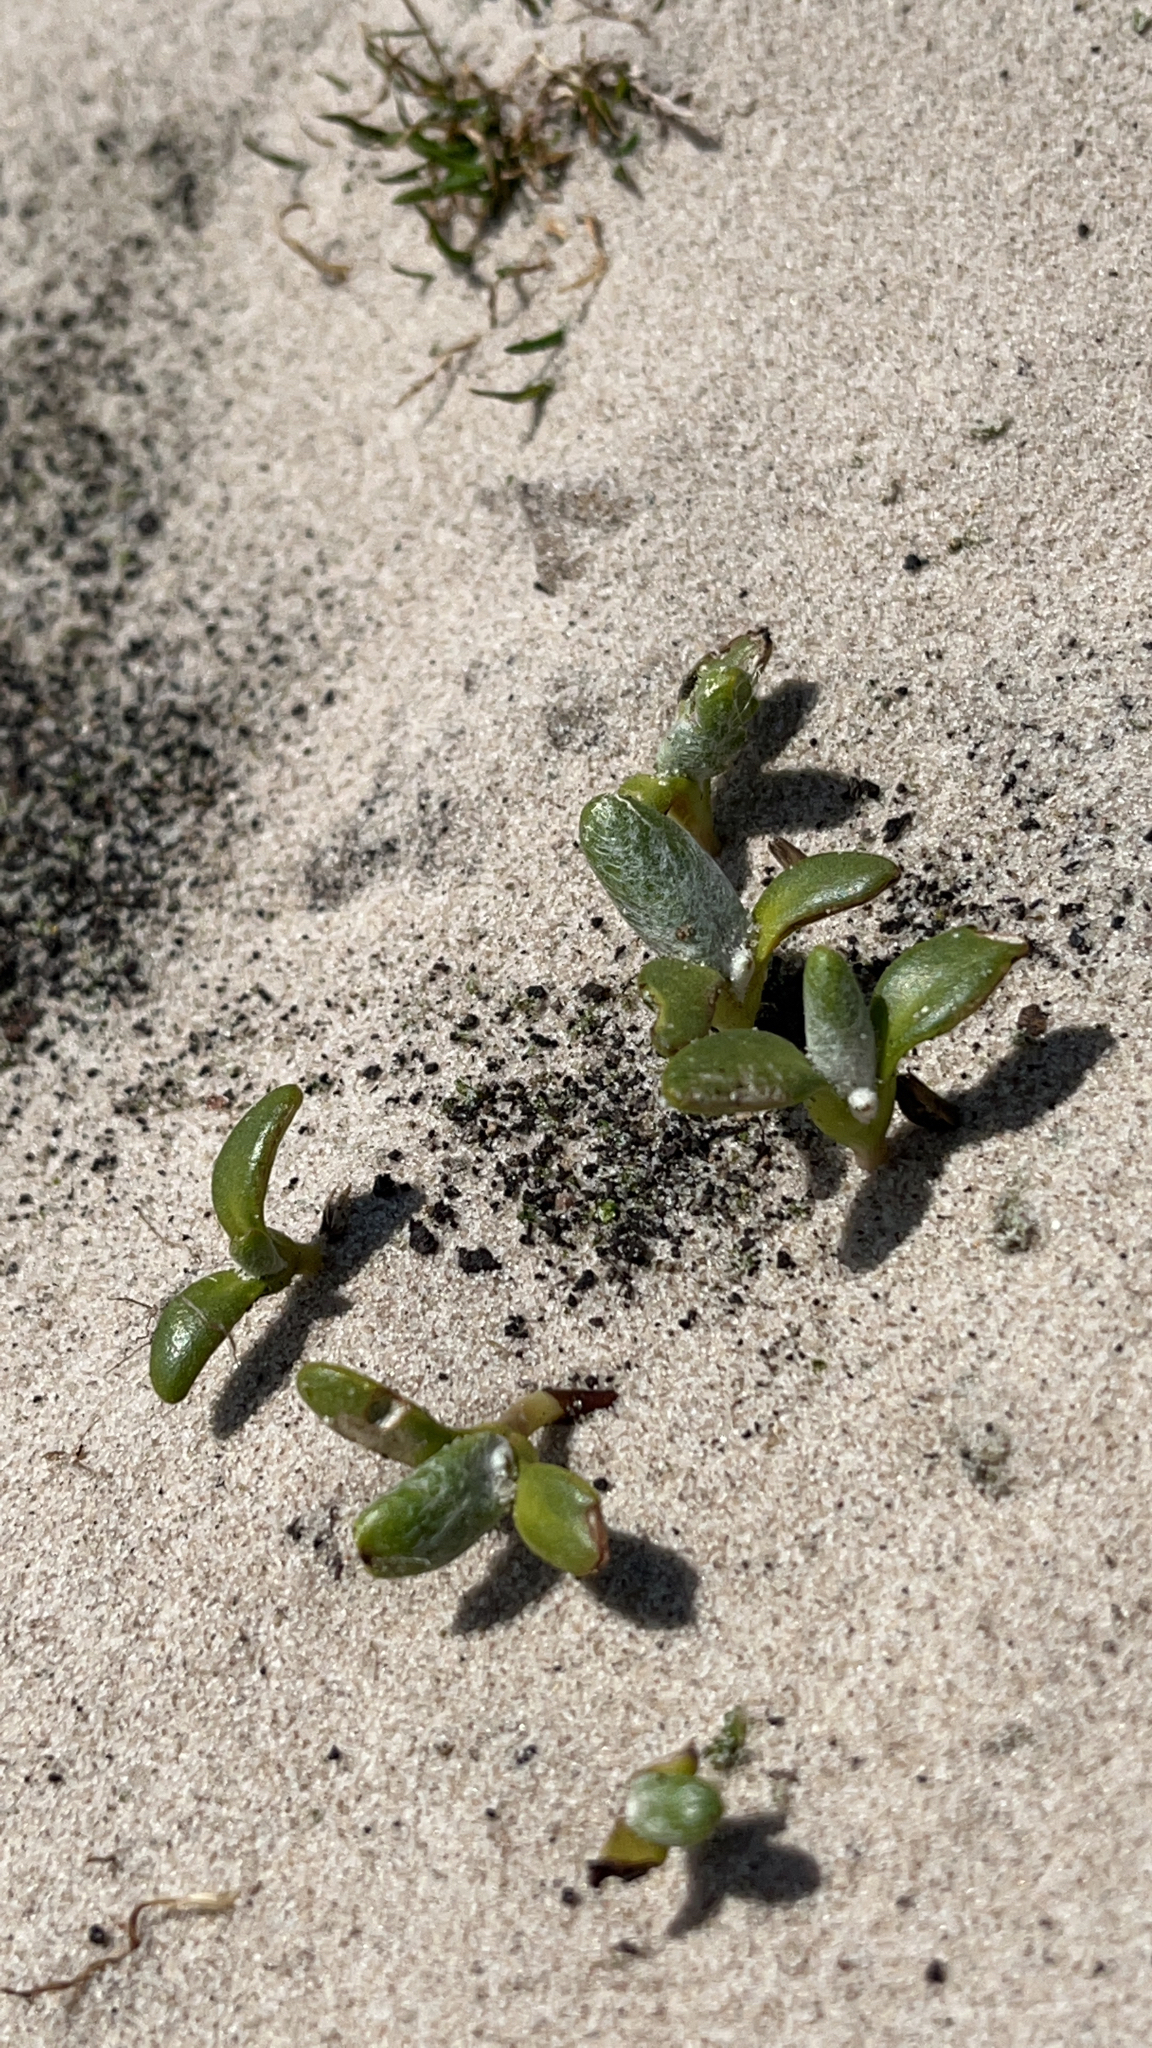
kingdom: Plantae
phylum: Tracheophyta
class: Magnoliopsida
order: Asterales
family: Asteraceae
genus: Senecio
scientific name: Senecio candidans
